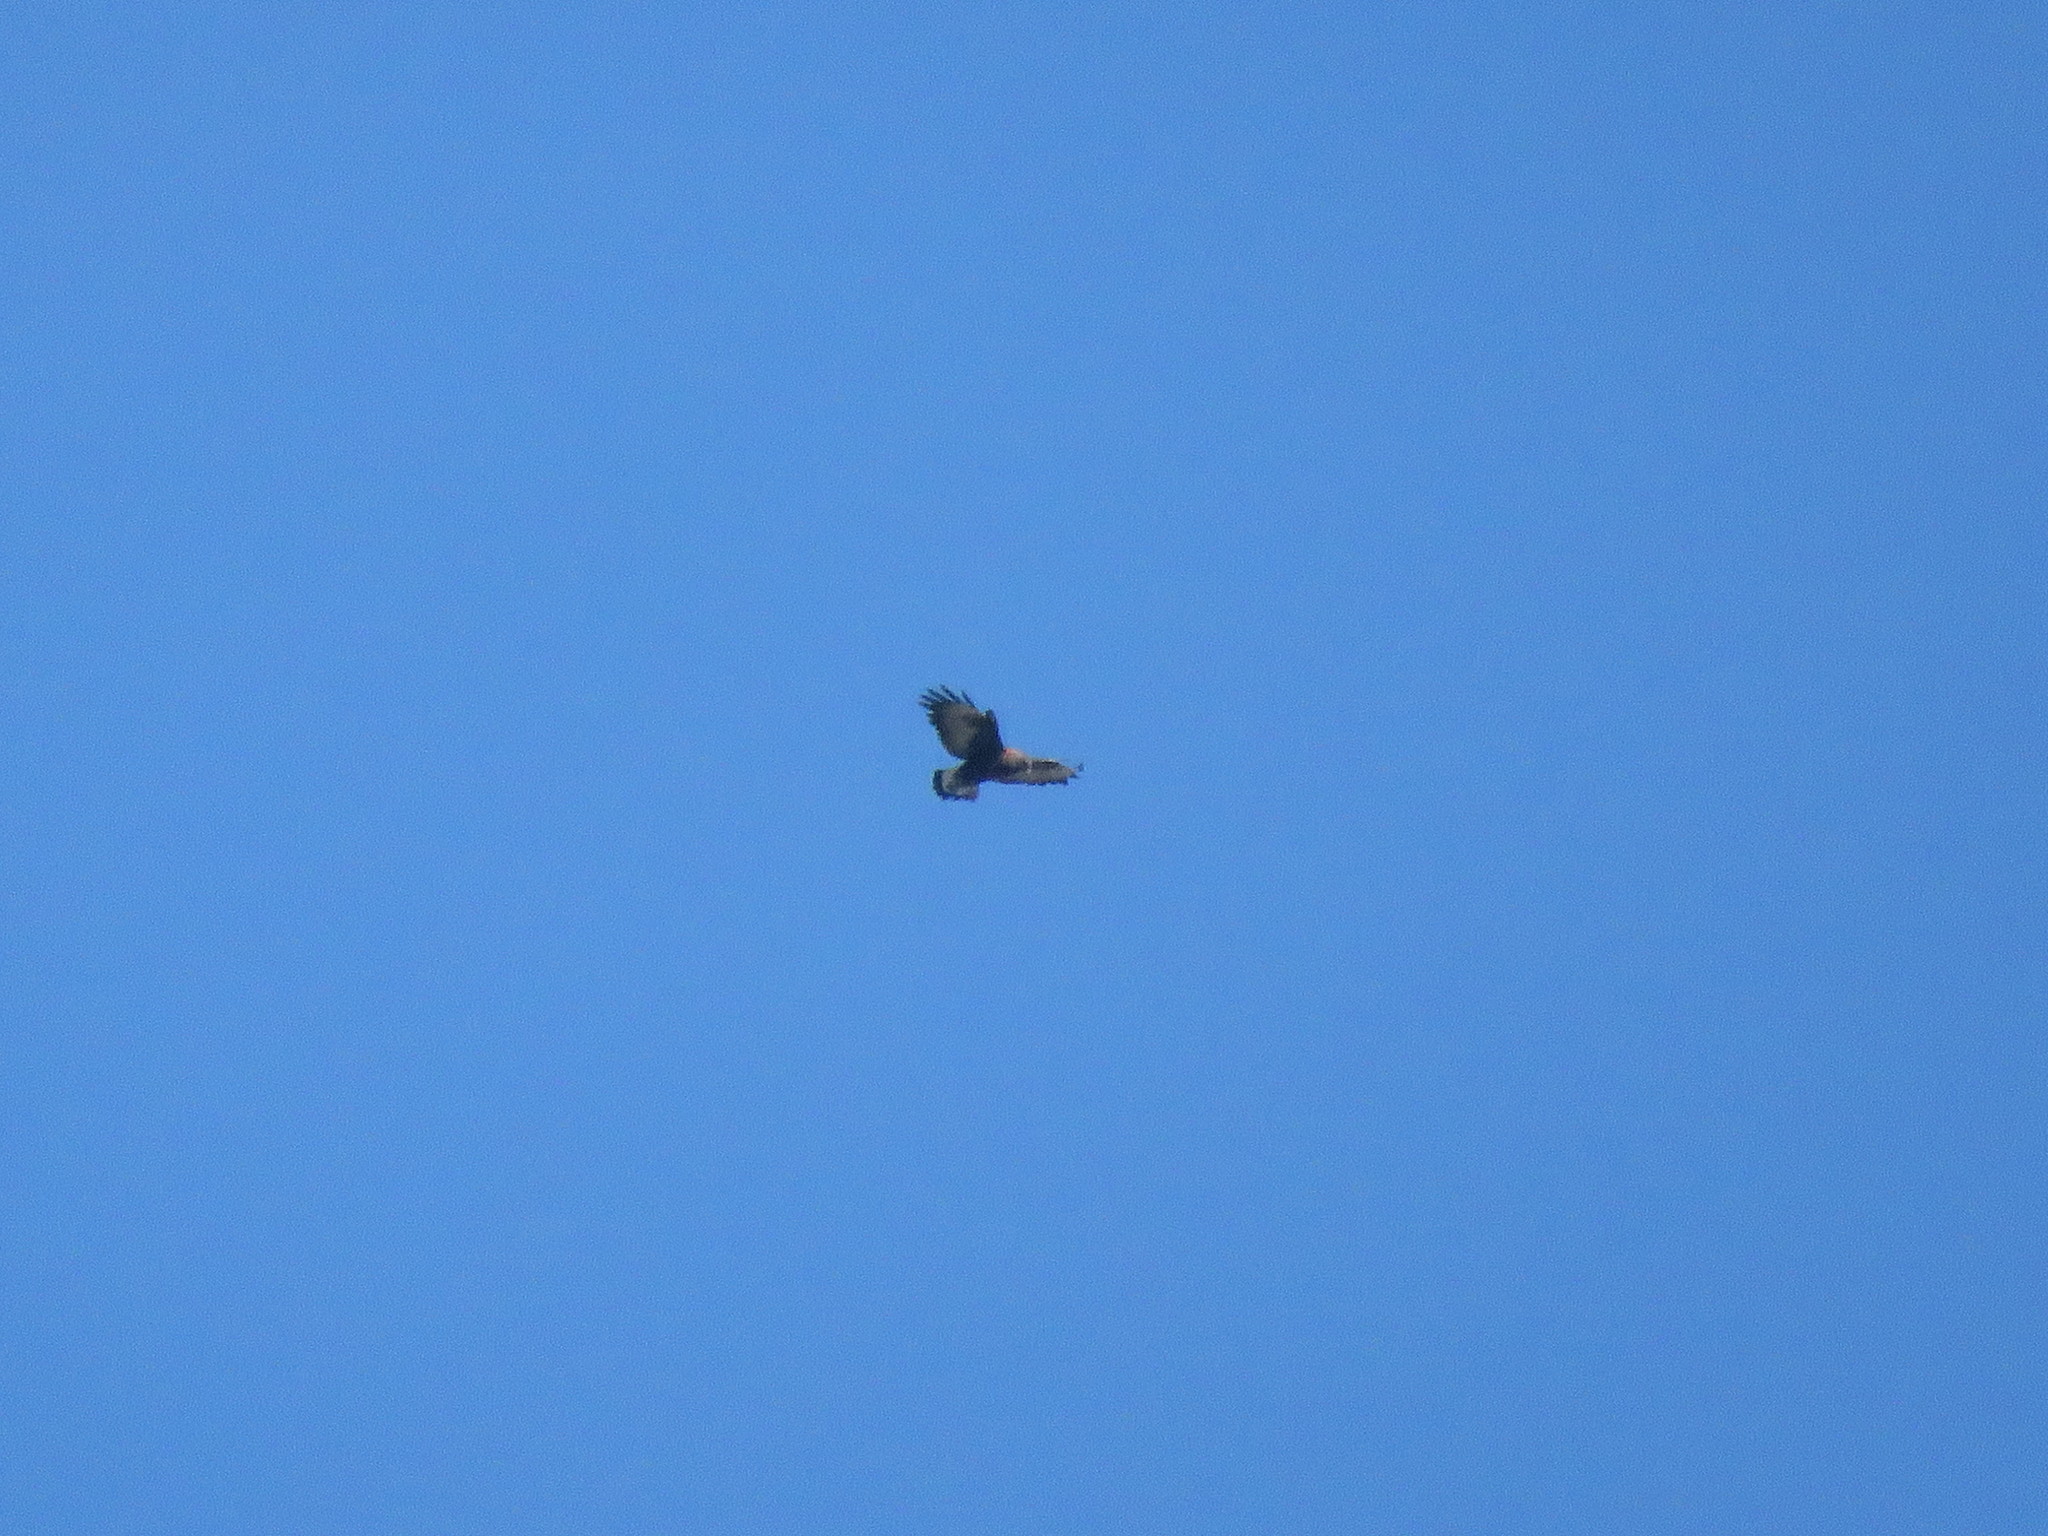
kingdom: Animalia
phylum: Chordata
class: Aves
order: Accipitriformes
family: Accipitridae
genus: Buteo
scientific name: Buteo polyosoma
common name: Variable hawk
